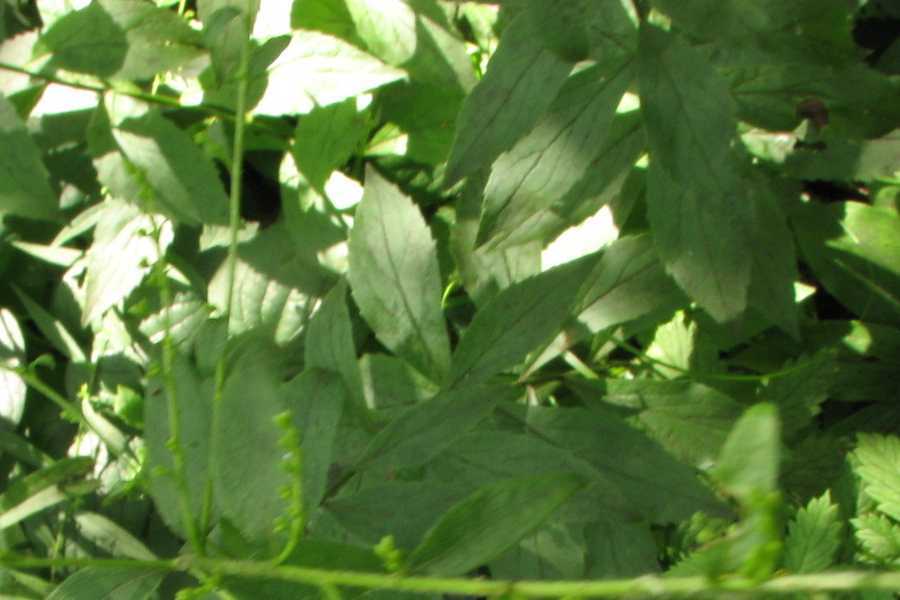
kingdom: Plantae
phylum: Tracheophyta
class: Magnoliopsida
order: Asterales
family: Asteraceae
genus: Solidago
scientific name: Solidago ulmifolia
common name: Elm-leaf goldenrod
